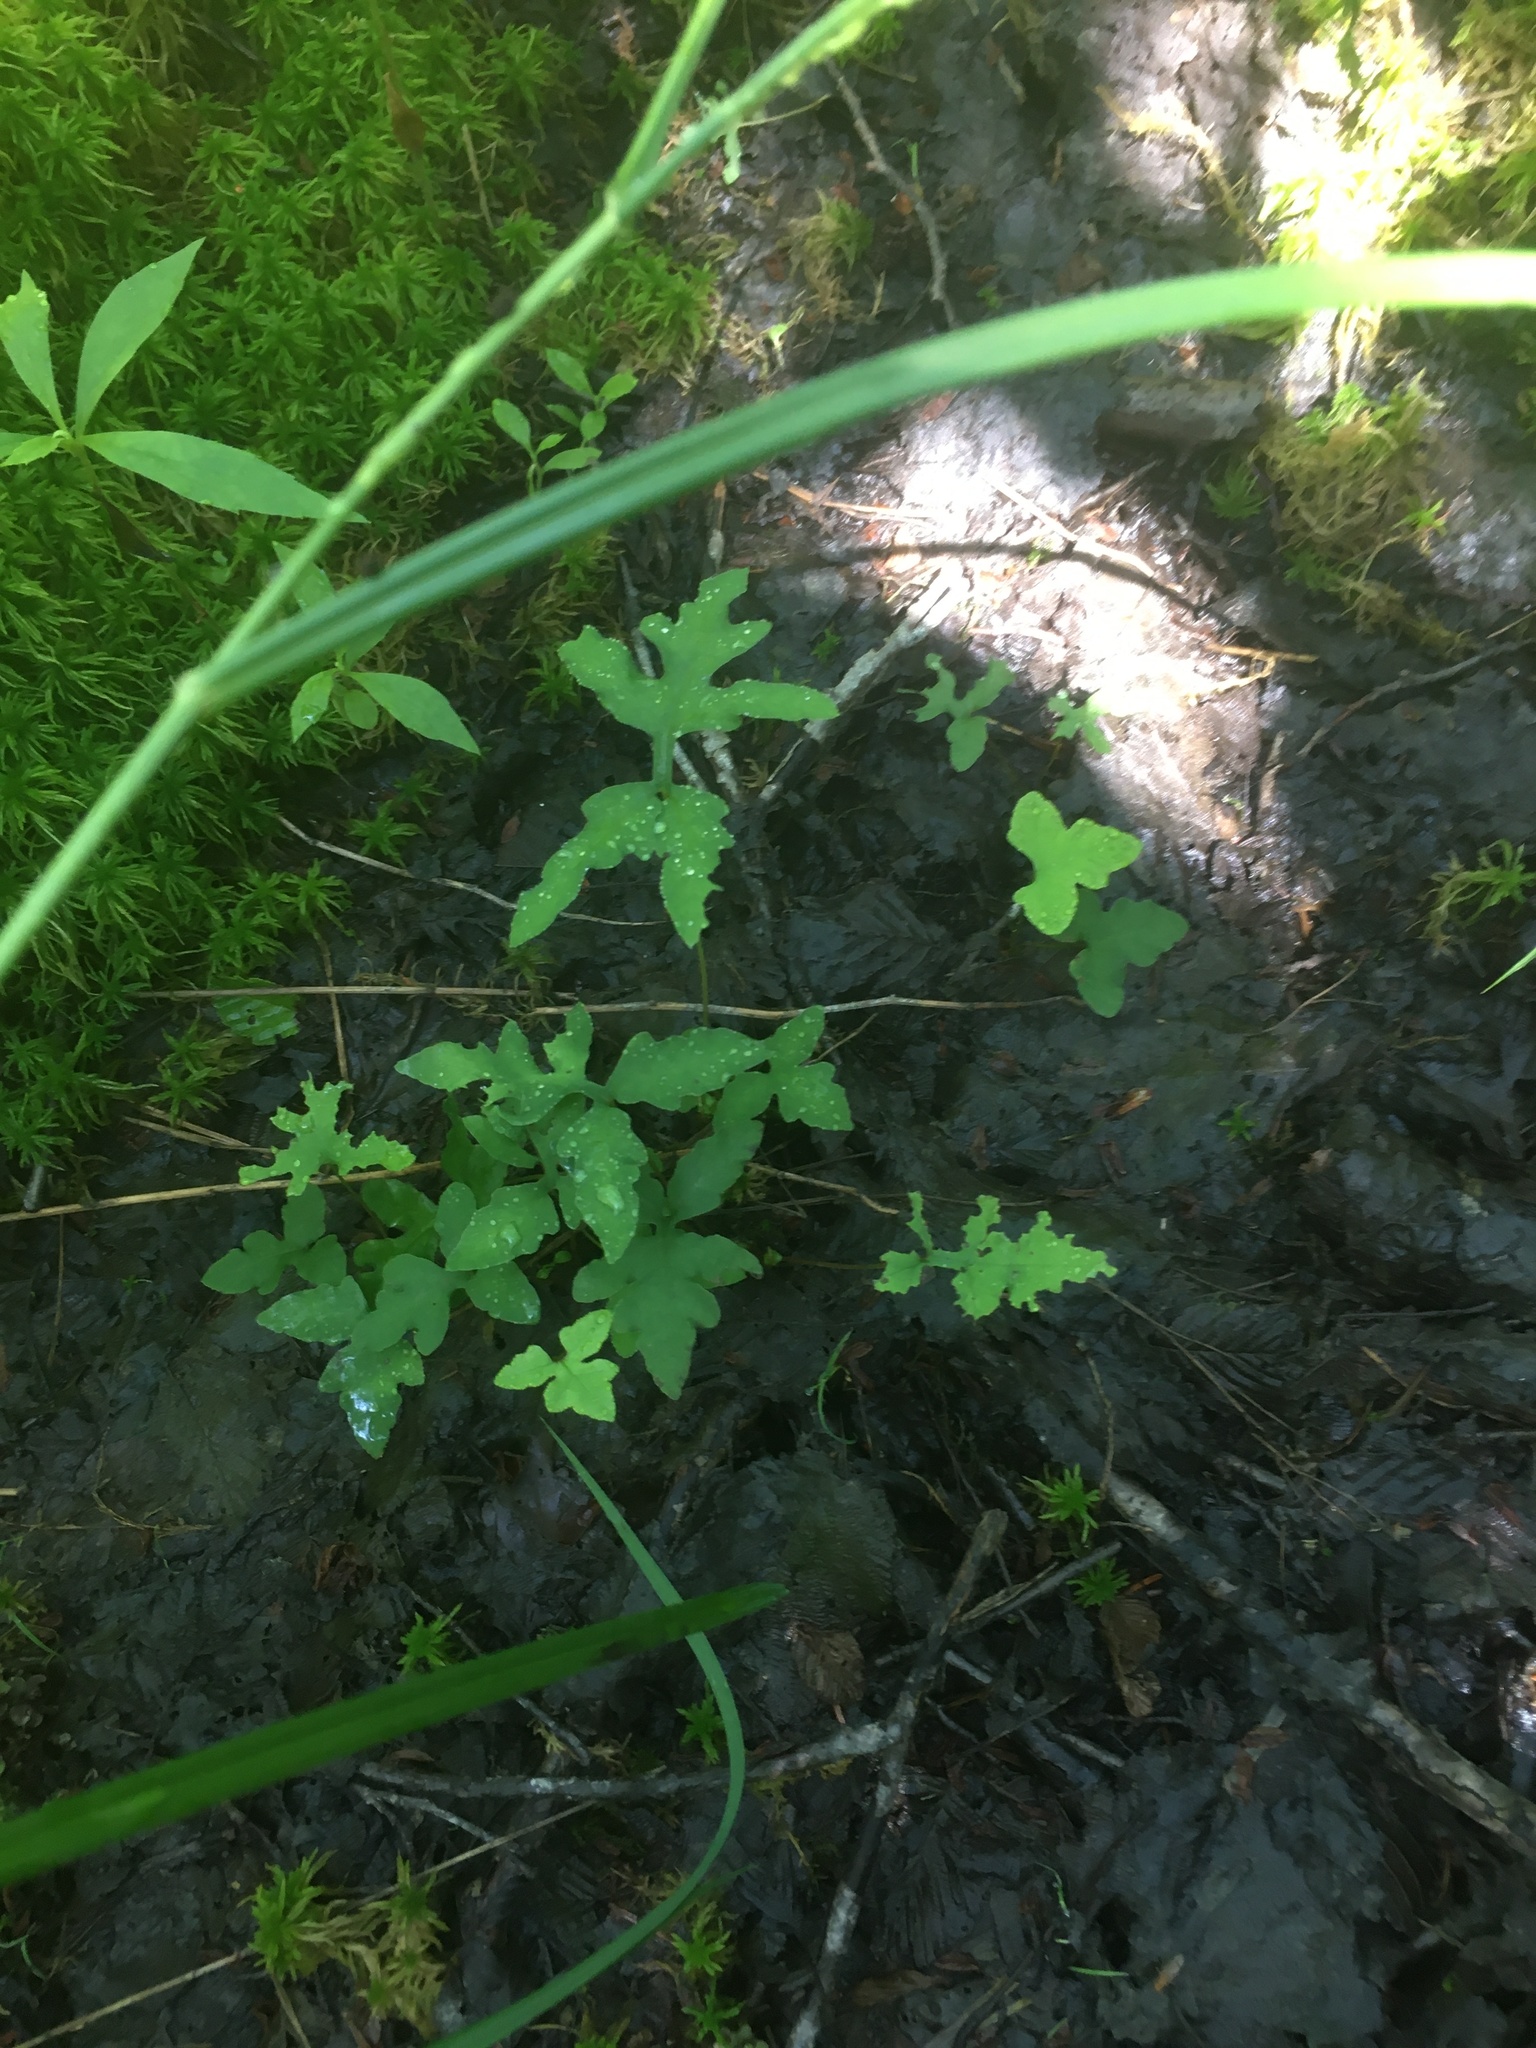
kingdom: Plantae
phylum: Tracheophyta
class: Polypodiopsida
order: Polypodiales
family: Onocleaceae
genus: Onoclea
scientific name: Onoclea sensibilis
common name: Sensitive fern
